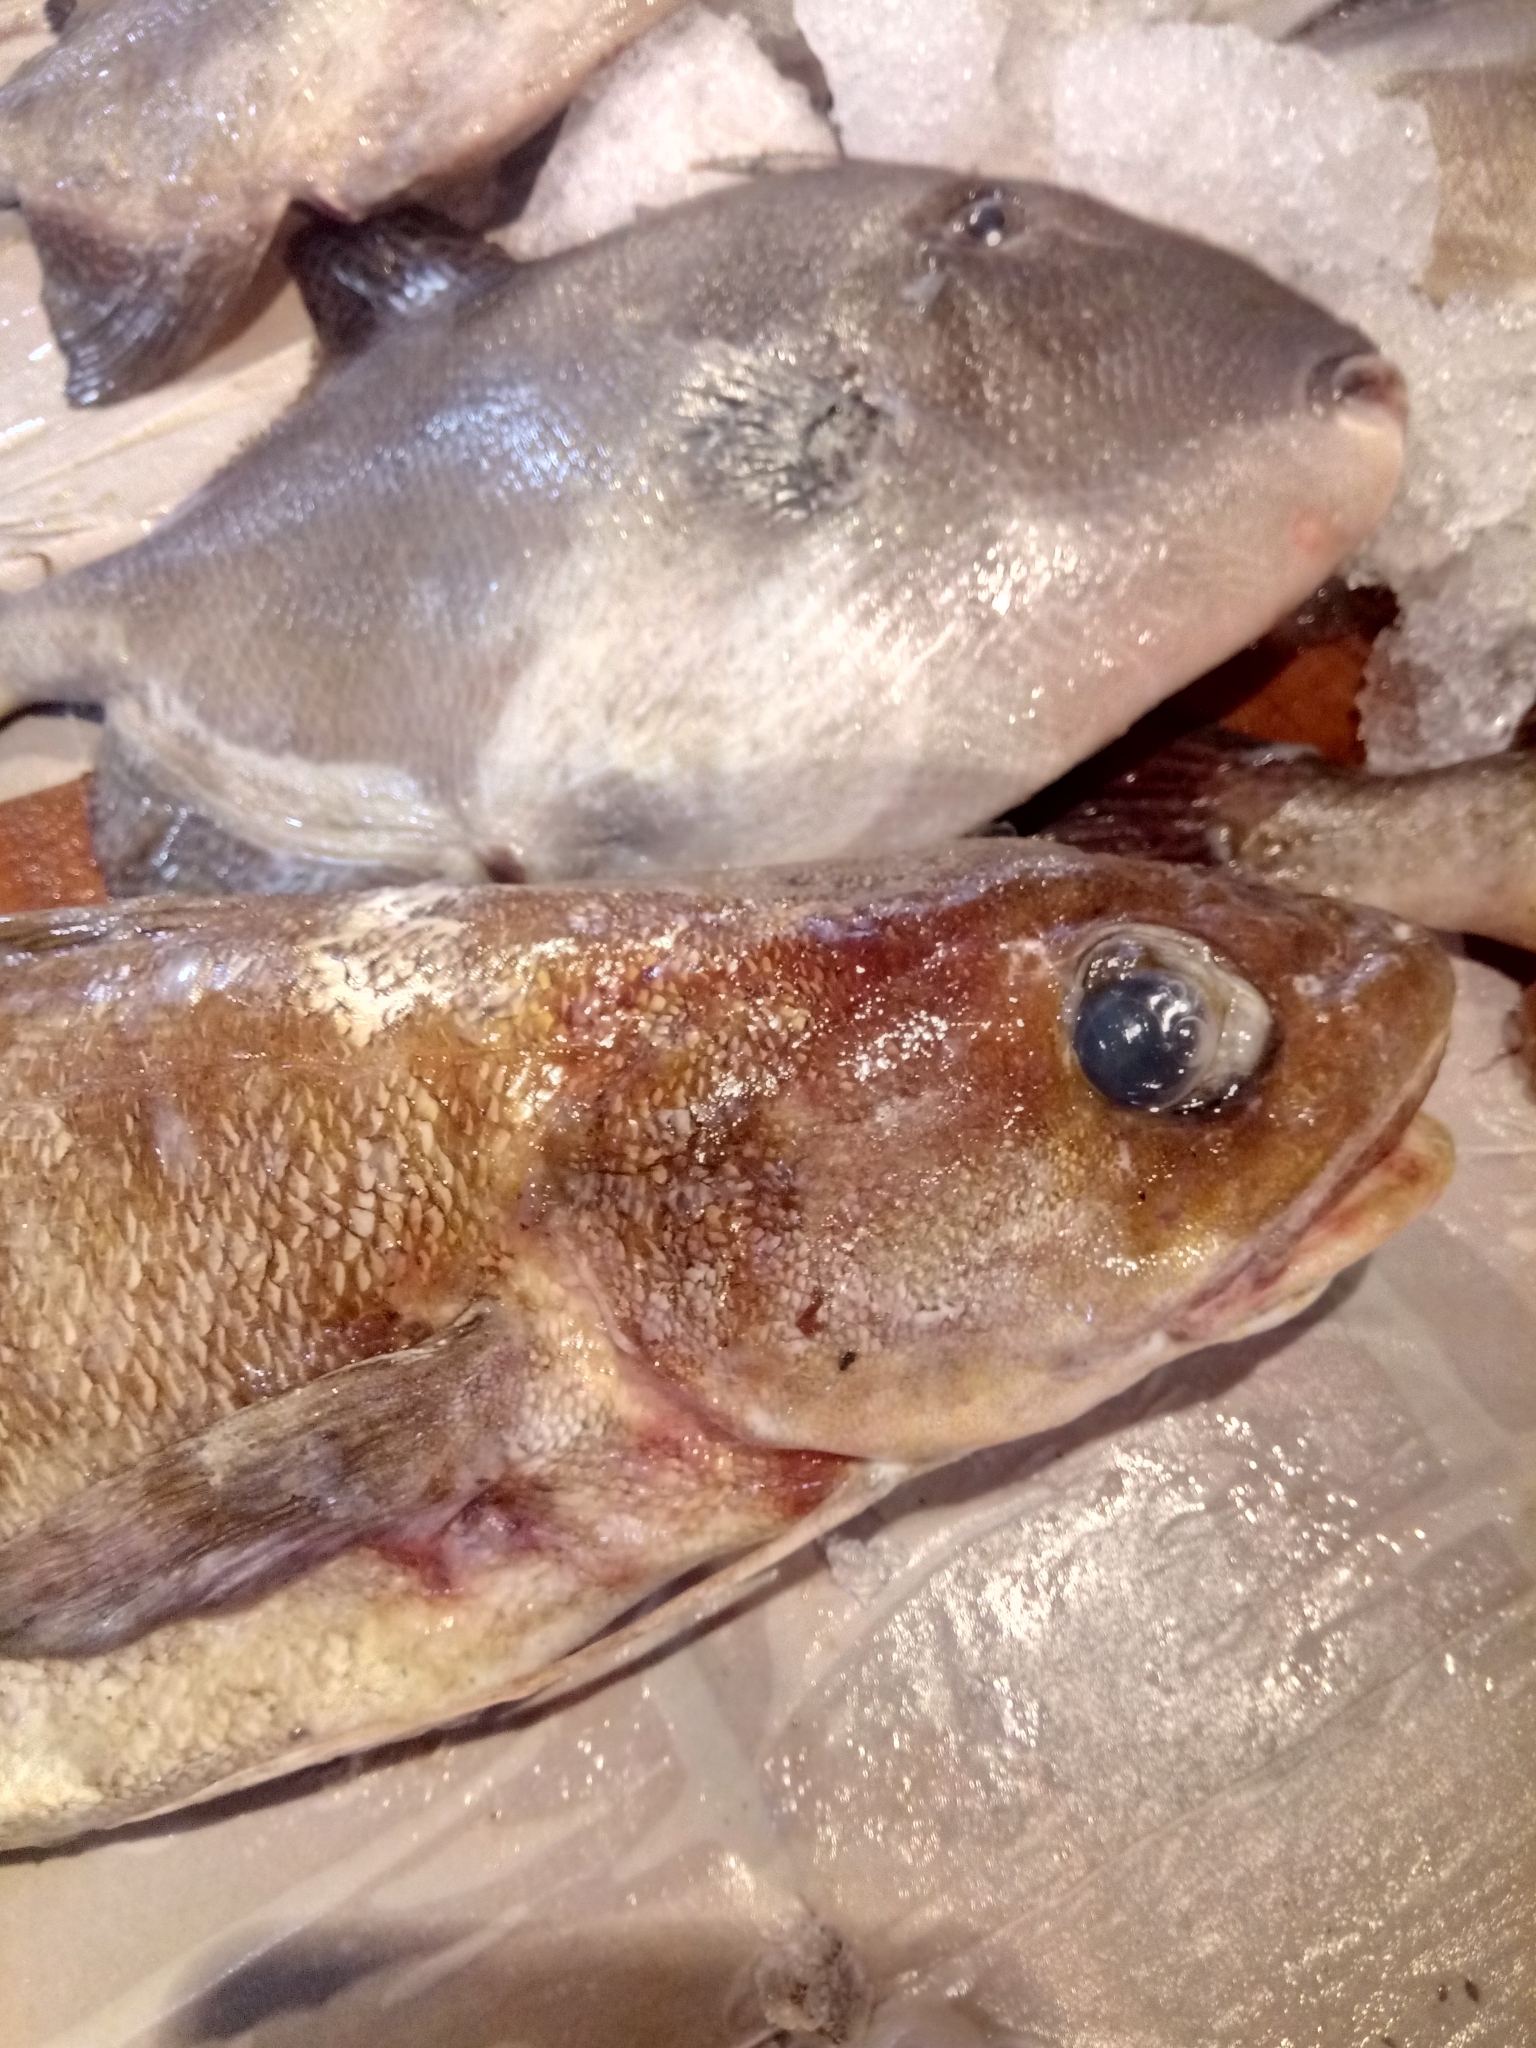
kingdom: Animalia
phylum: Chordata
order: Gadiformes
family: Phycidae
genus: Phycis
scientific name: Phycis phycis
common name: Forkbeard
